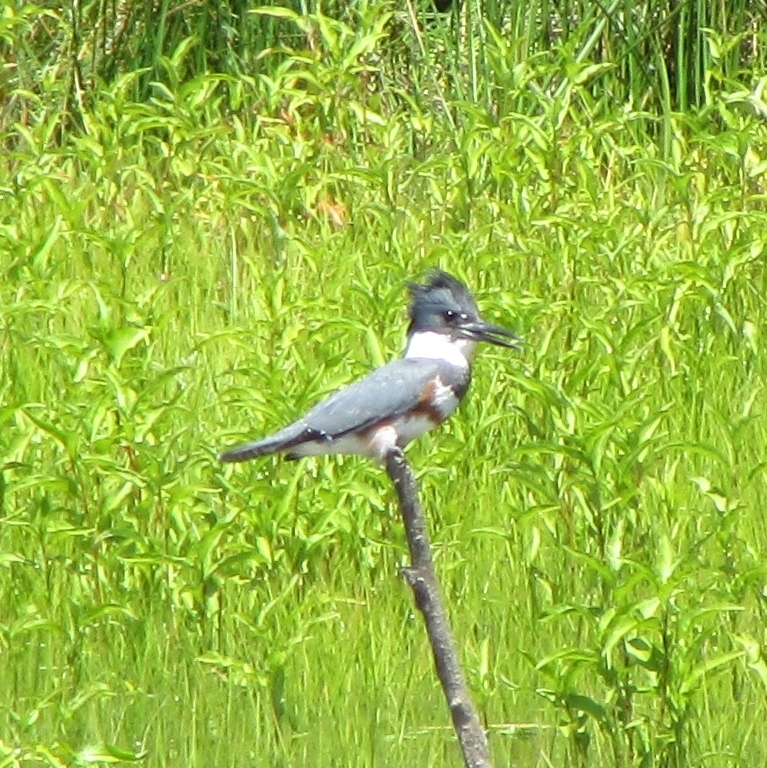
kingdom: Animalia
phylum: Chordata
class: Aves
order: Coraciiformes
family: Alcedinidae
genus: Megaceryle
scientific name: Megaceryle alcyon
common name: Belted kingfisher
